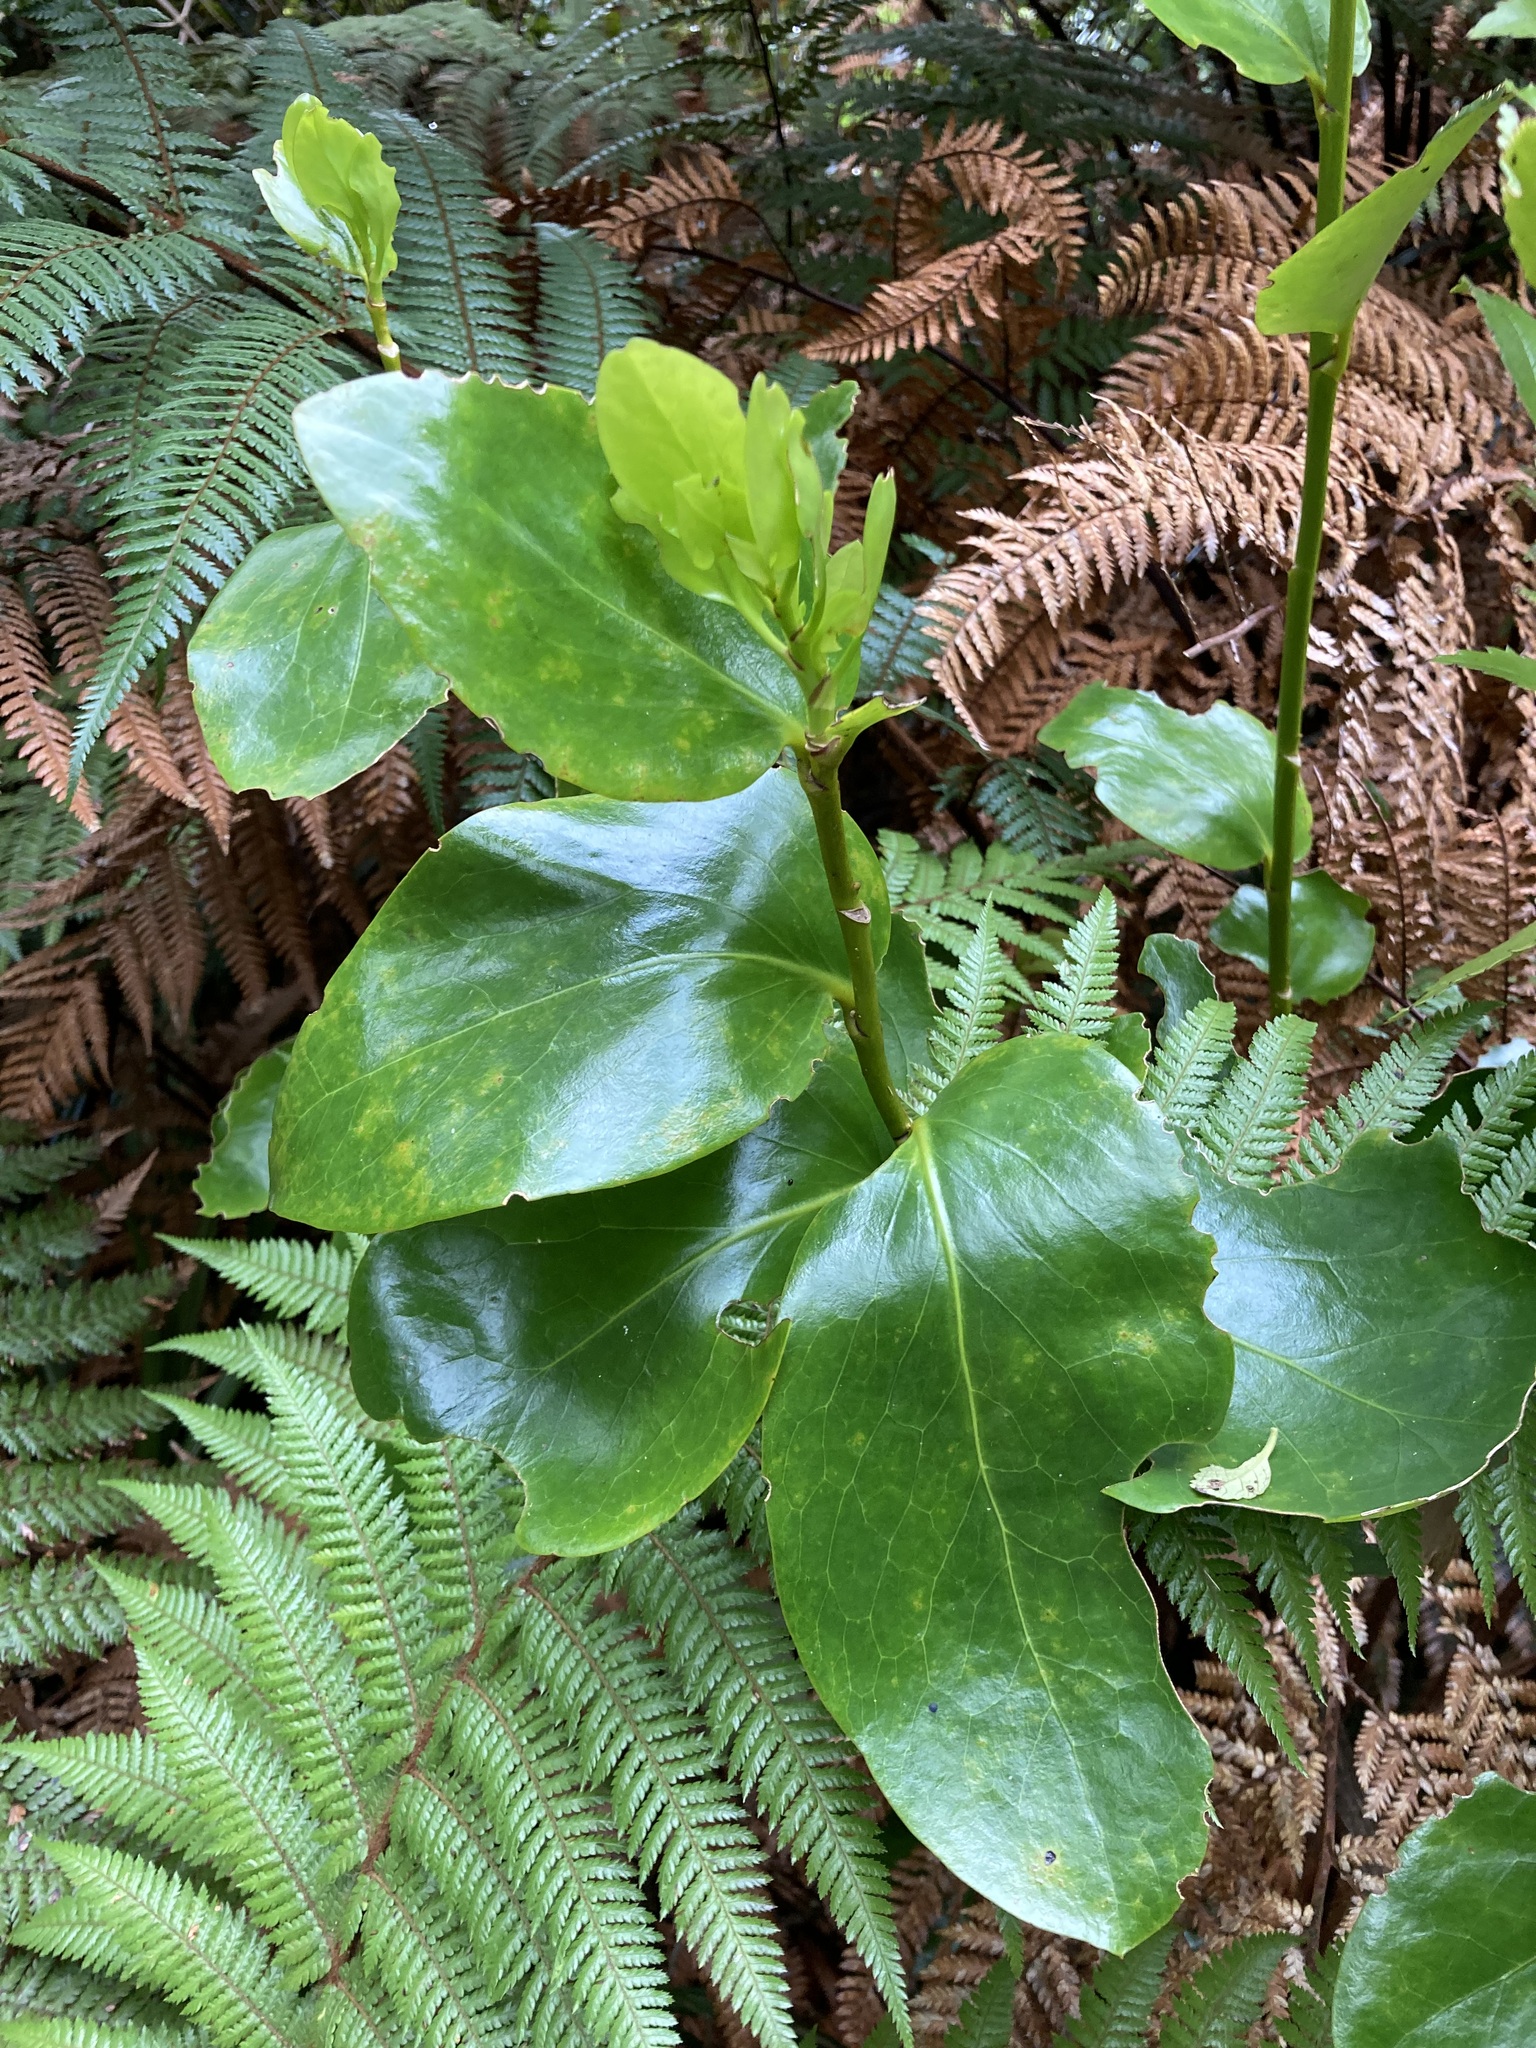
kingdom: Plantae
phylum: Tracheophyta
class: Magnoliopsida
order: Apiales
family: Griseliniaceae
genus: Griselinia
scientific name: Griselinia lucida
